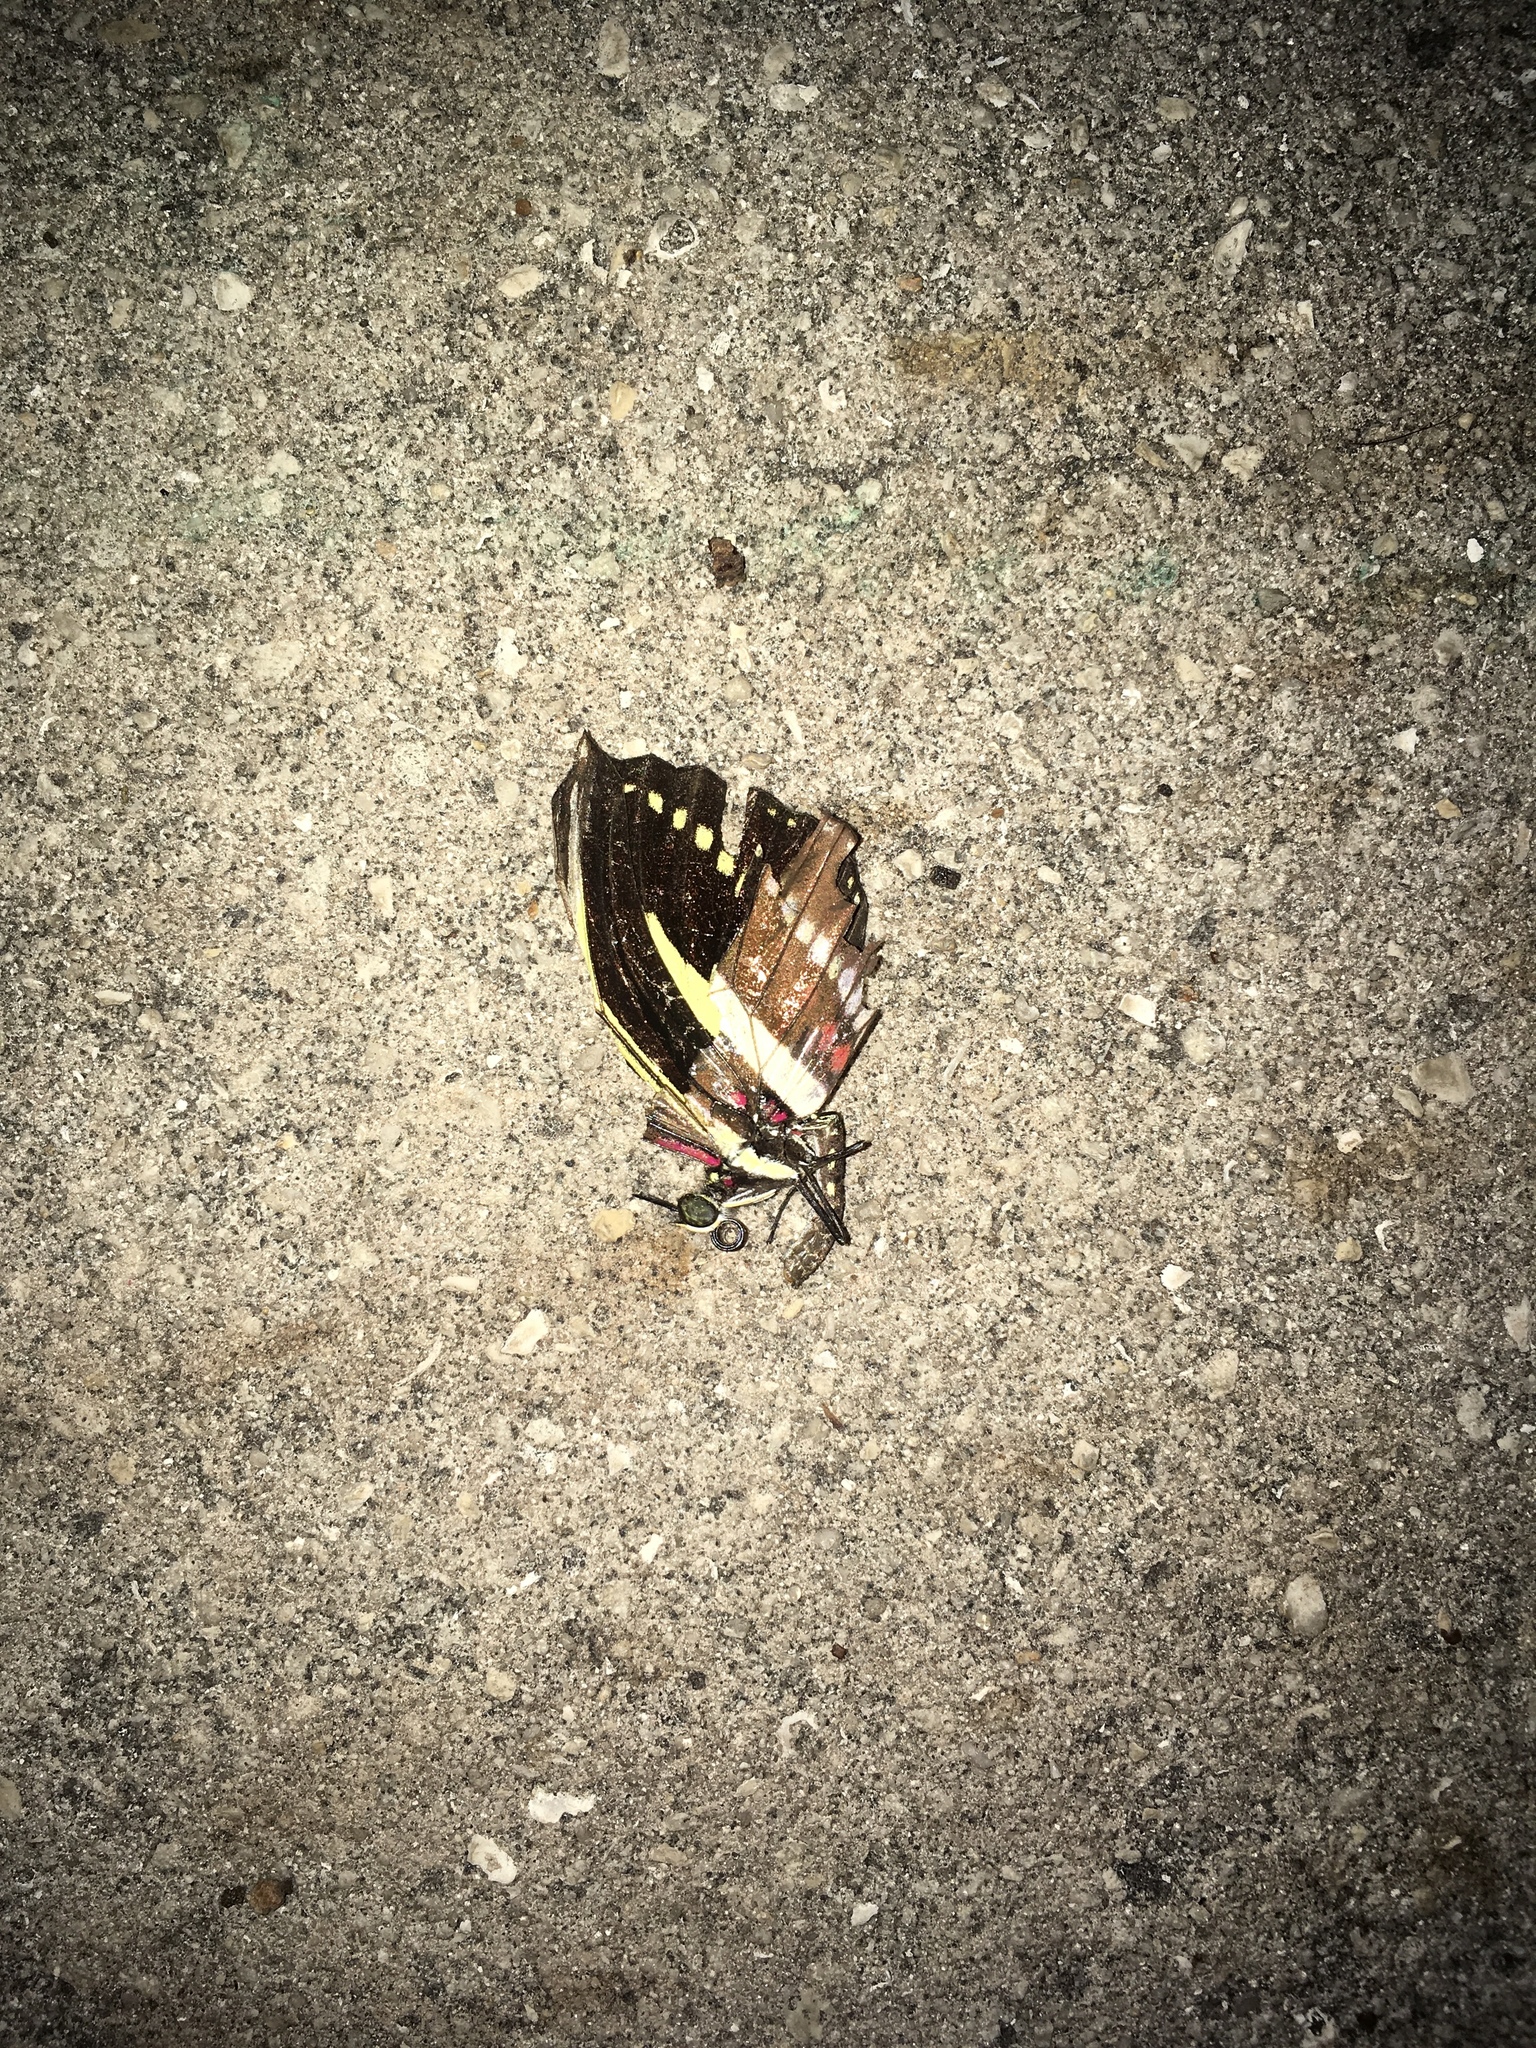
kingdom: Animalia
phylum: Arthropoda
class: Insecta
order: Lepidoptera
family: Nymphalidae
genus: Heliconius
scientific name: Heliconius charithonia
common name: Zebra long wing
